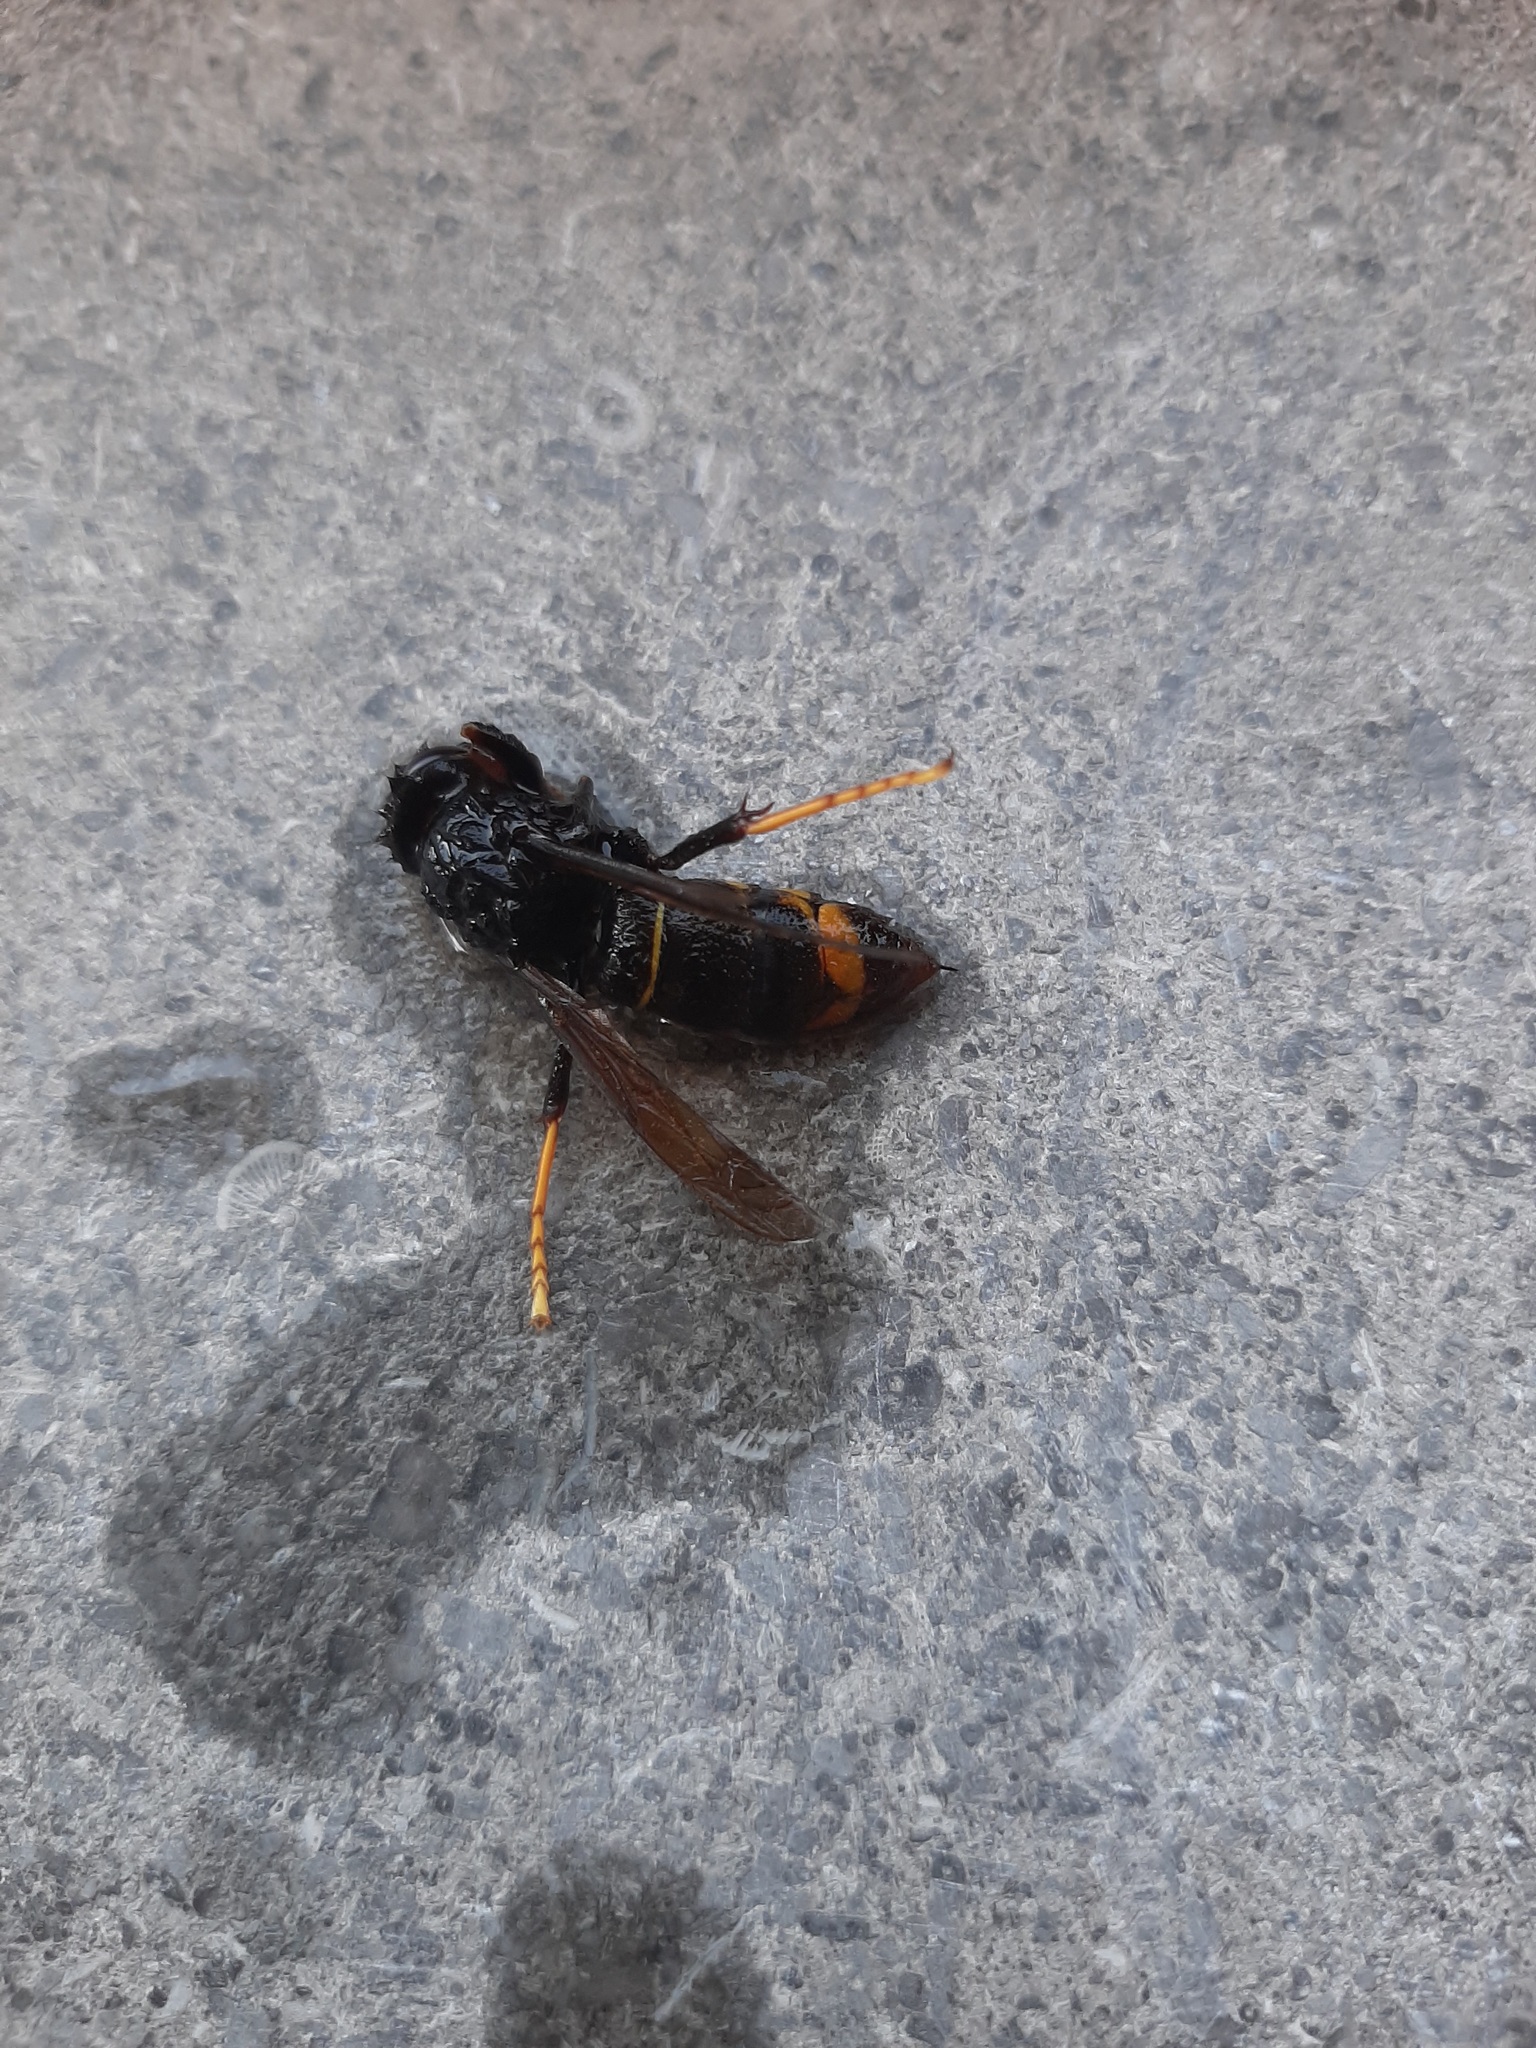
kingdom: Animalia
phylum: Arthropoda
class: Insecta
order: Hymenoptera
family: Vespidae
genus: Vespa
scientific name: Vespa velutina
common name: Asian hornet
